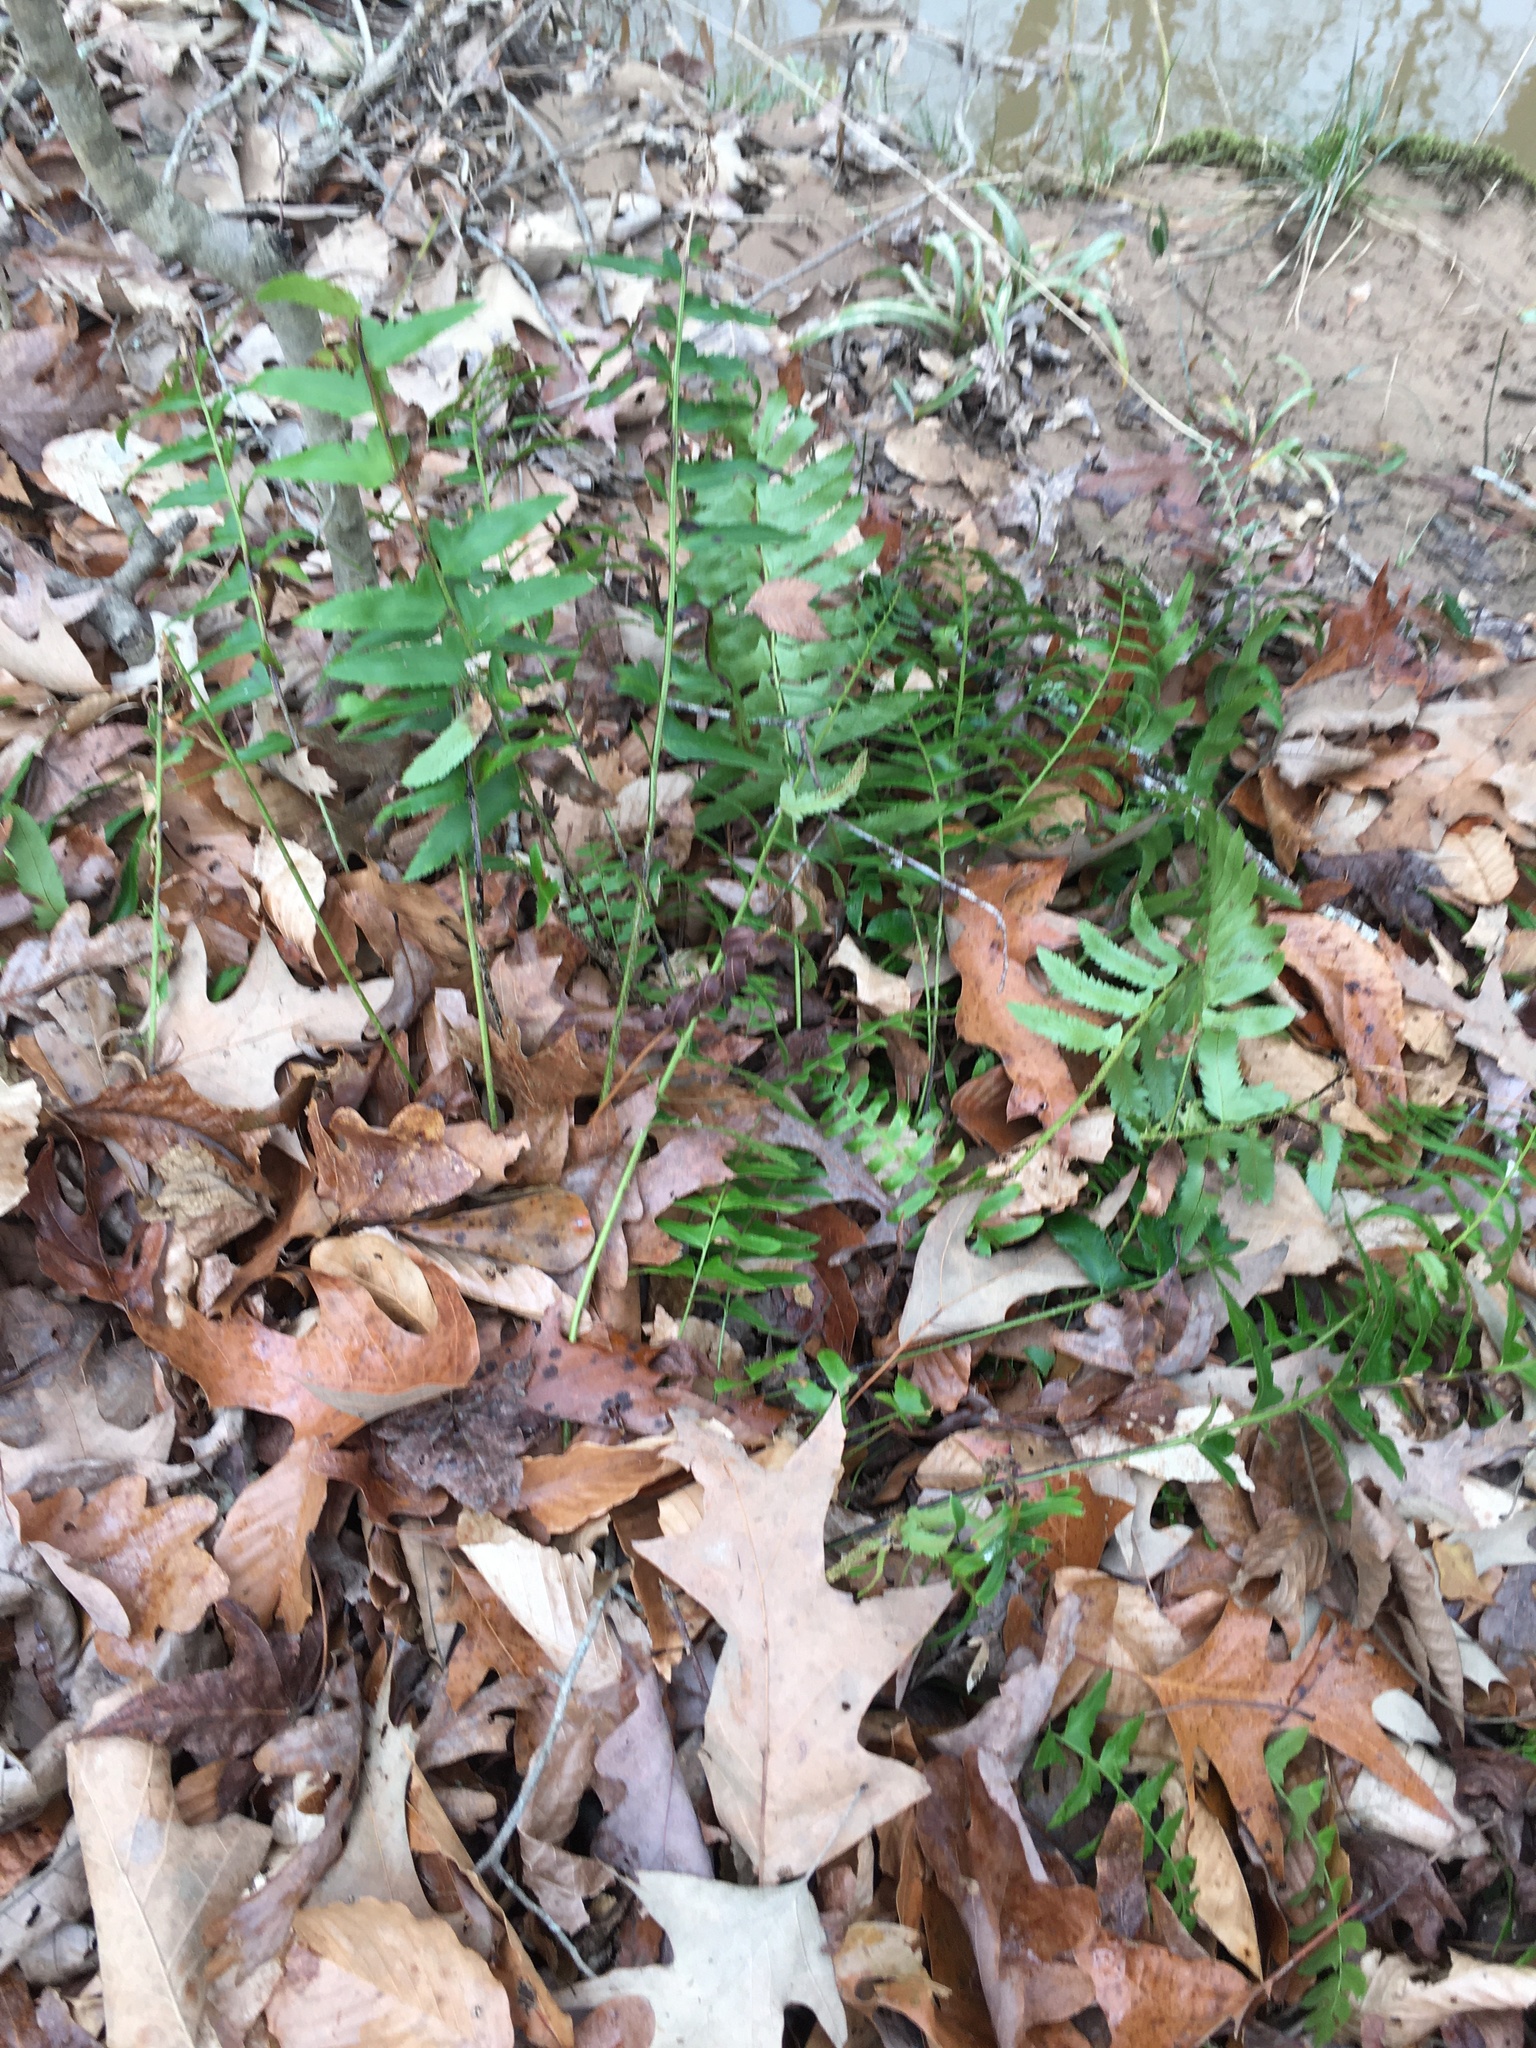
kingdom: Plantae
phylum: Tracheophyta
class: Polypodiopsida
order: Polypodiales
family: Dryopteridaceae
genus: Polystichum
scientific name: Polystichum acrostichoides
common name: Christmas fern
